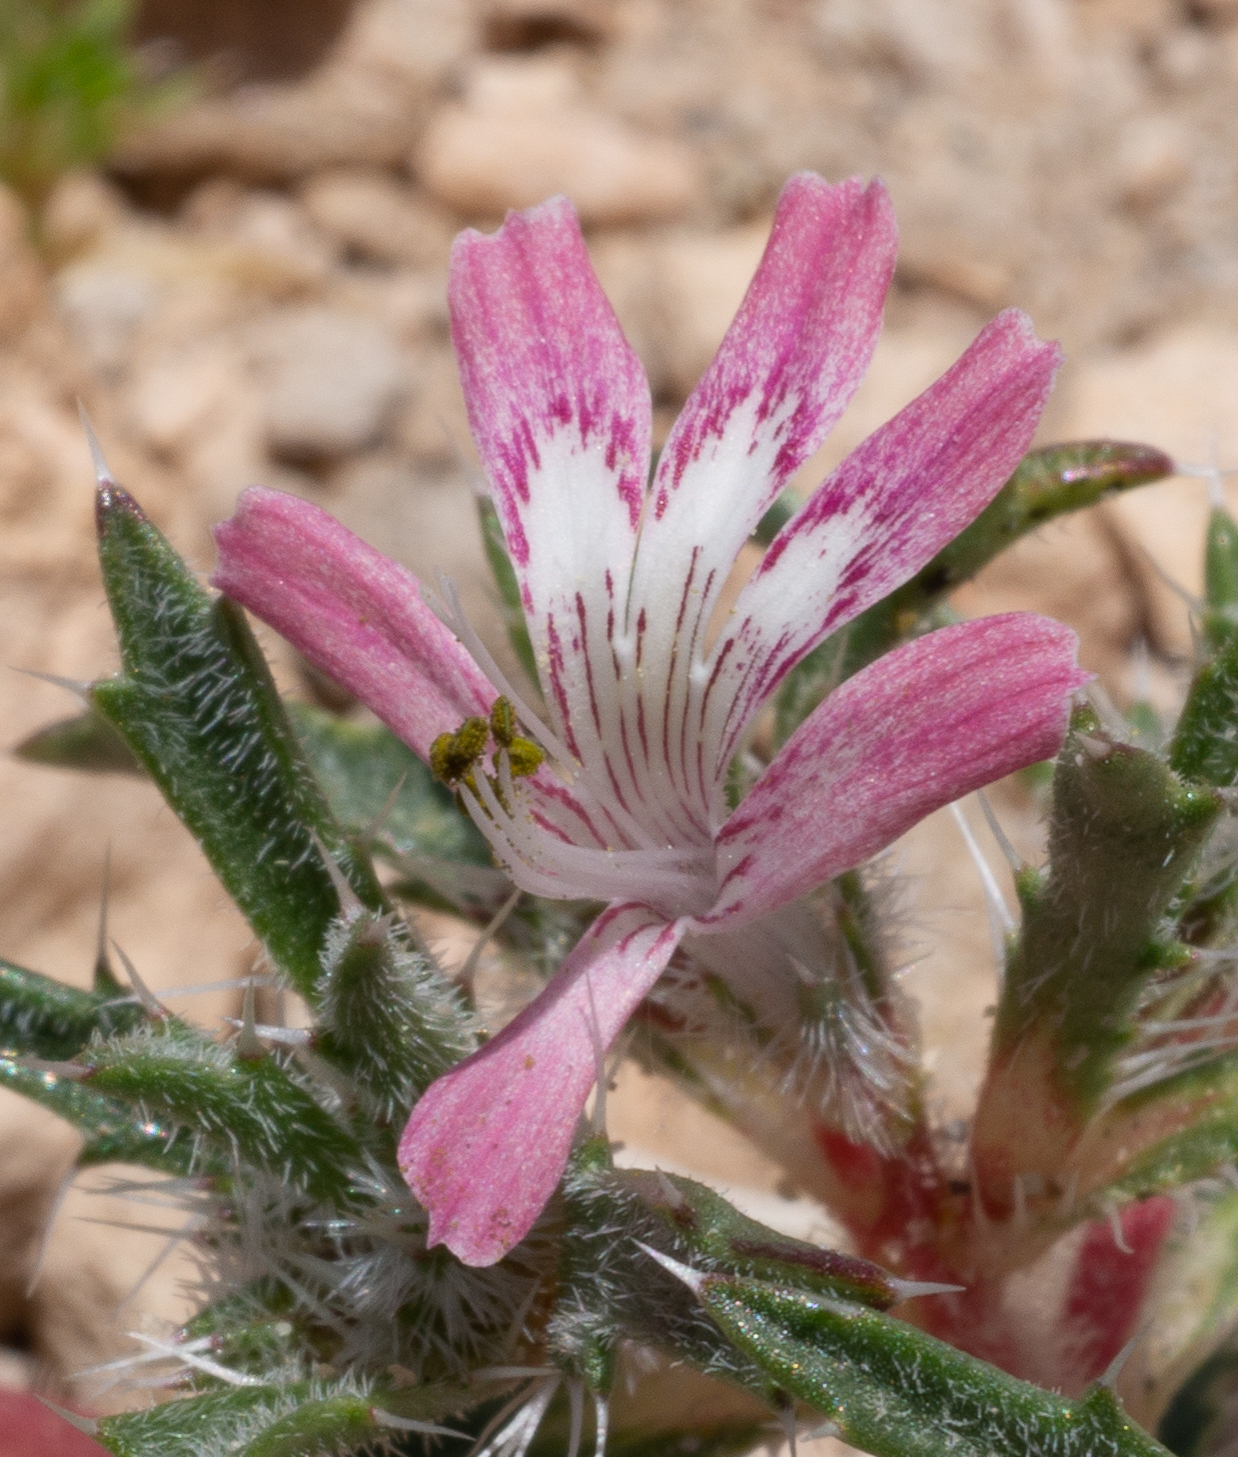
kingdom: Plantae
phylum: Tracheophyta
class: Magnoliopsida
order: Ericales
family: Polemoniaceae
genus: Loeseliastrum
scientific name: Loeseliastrum matthewsii
